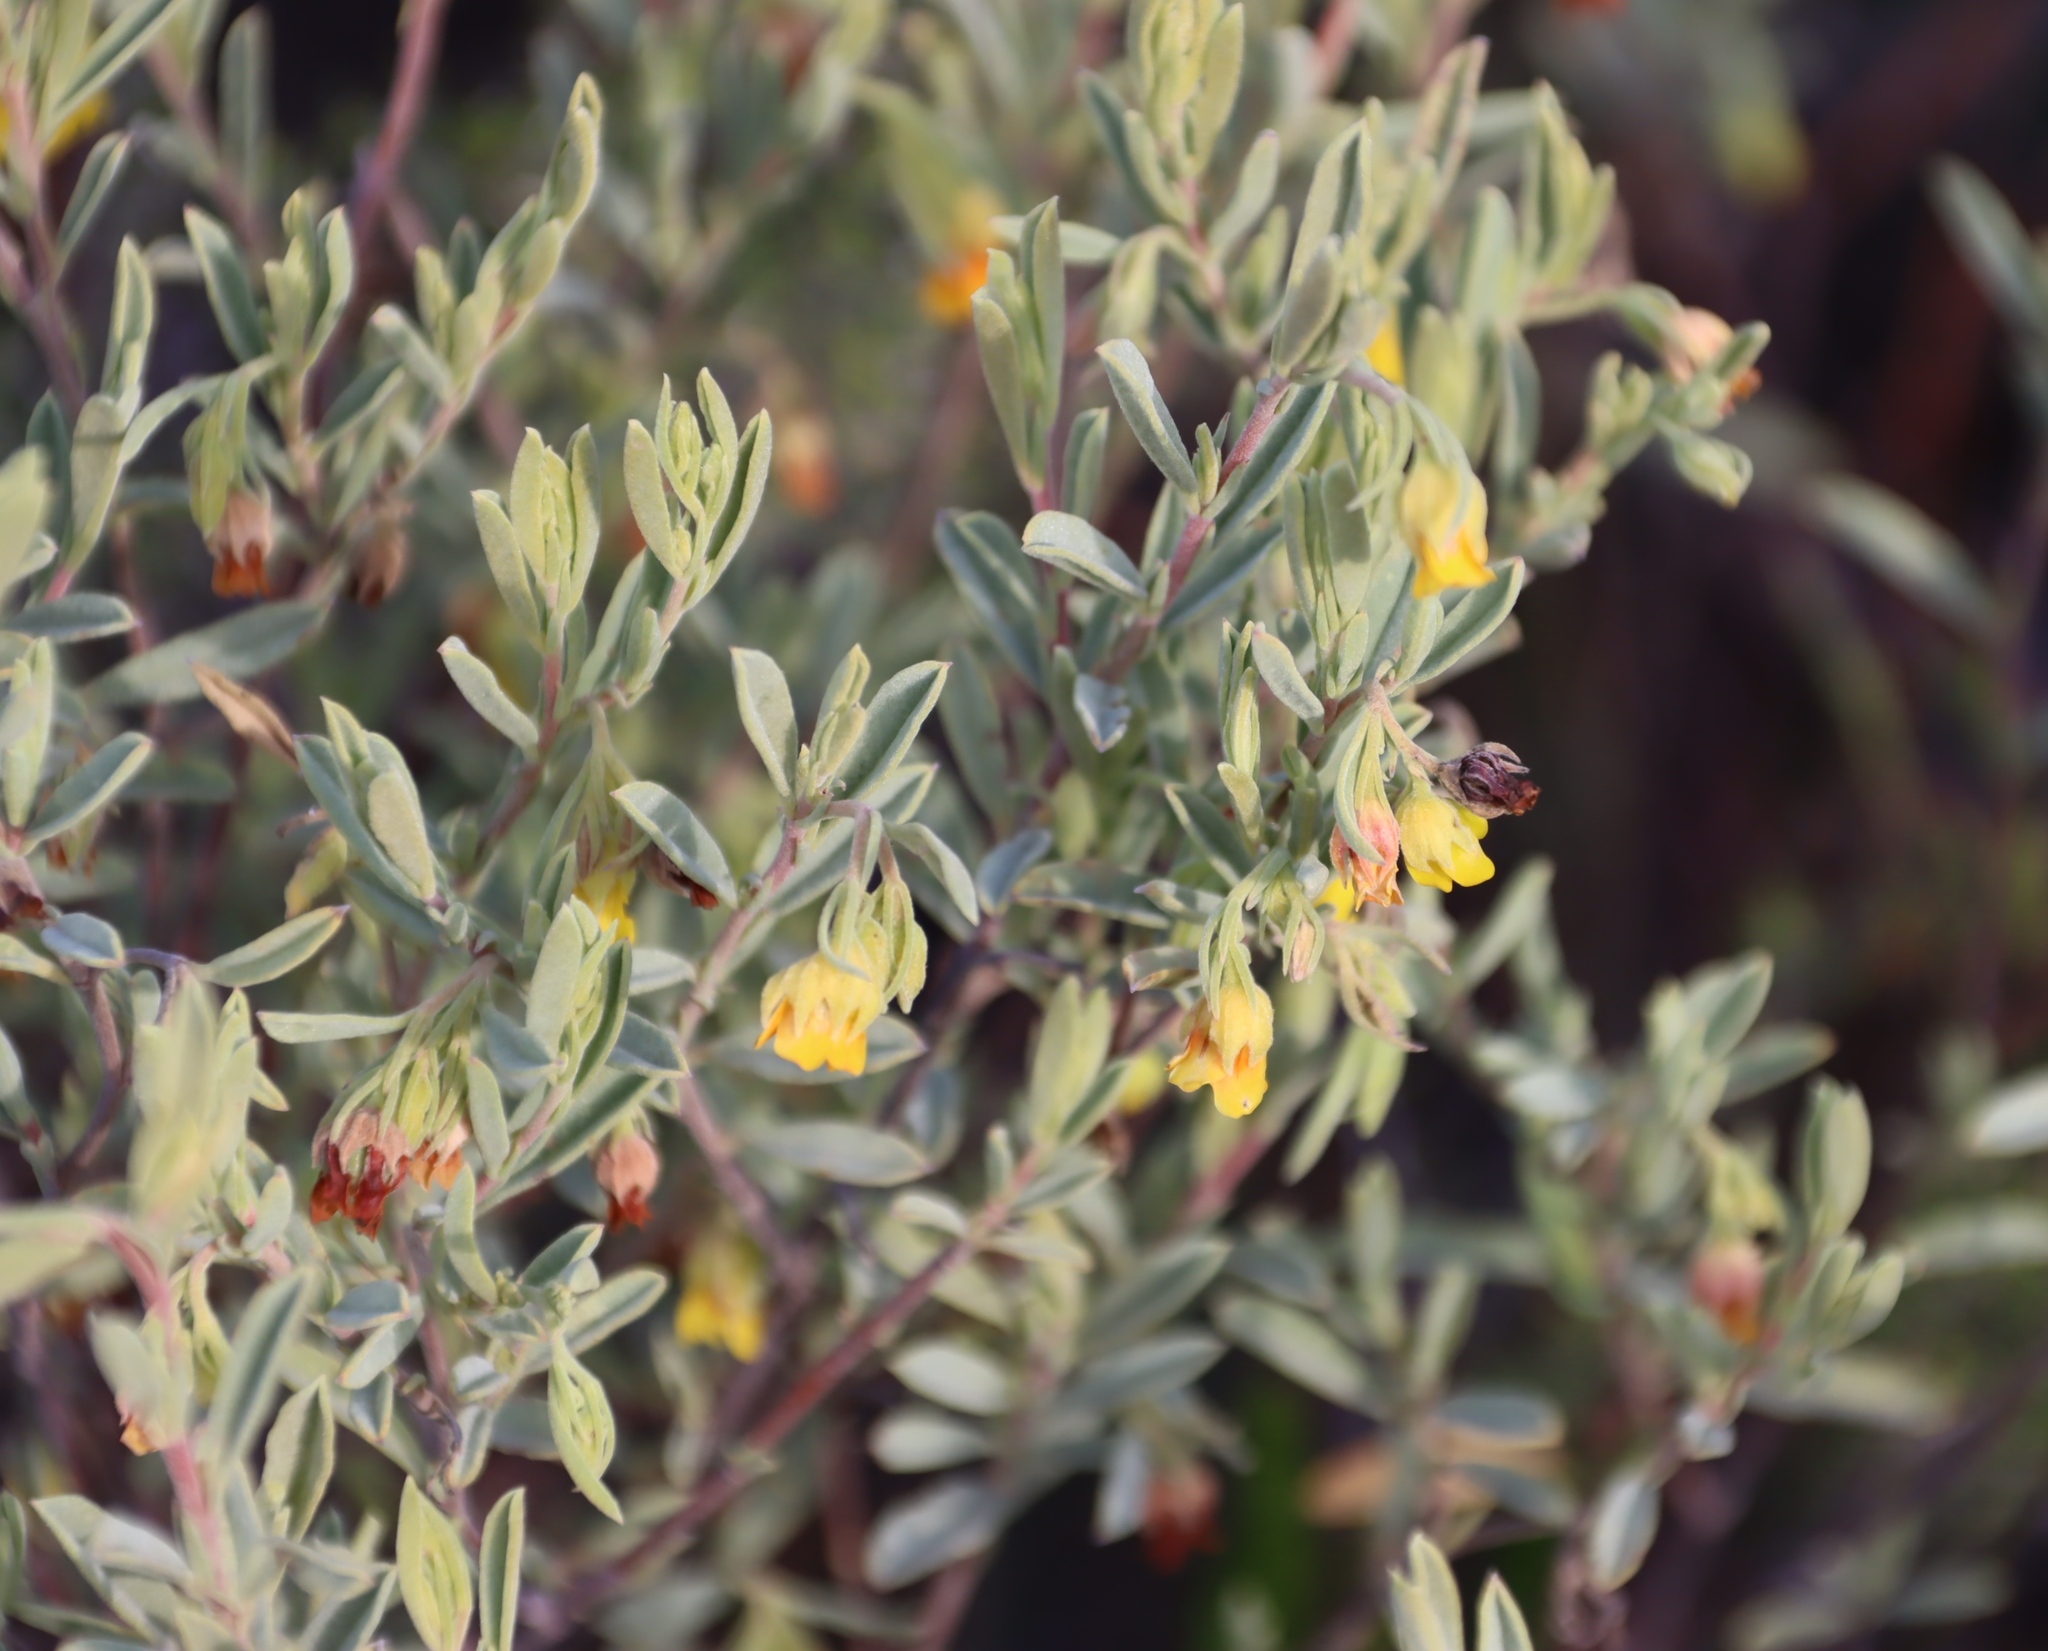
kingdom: Plantae
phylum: Tracheophyta
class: Magnoliopsida
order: Malvales
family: Malvaceae
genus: Hermannia
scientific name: Hermannia velutina
